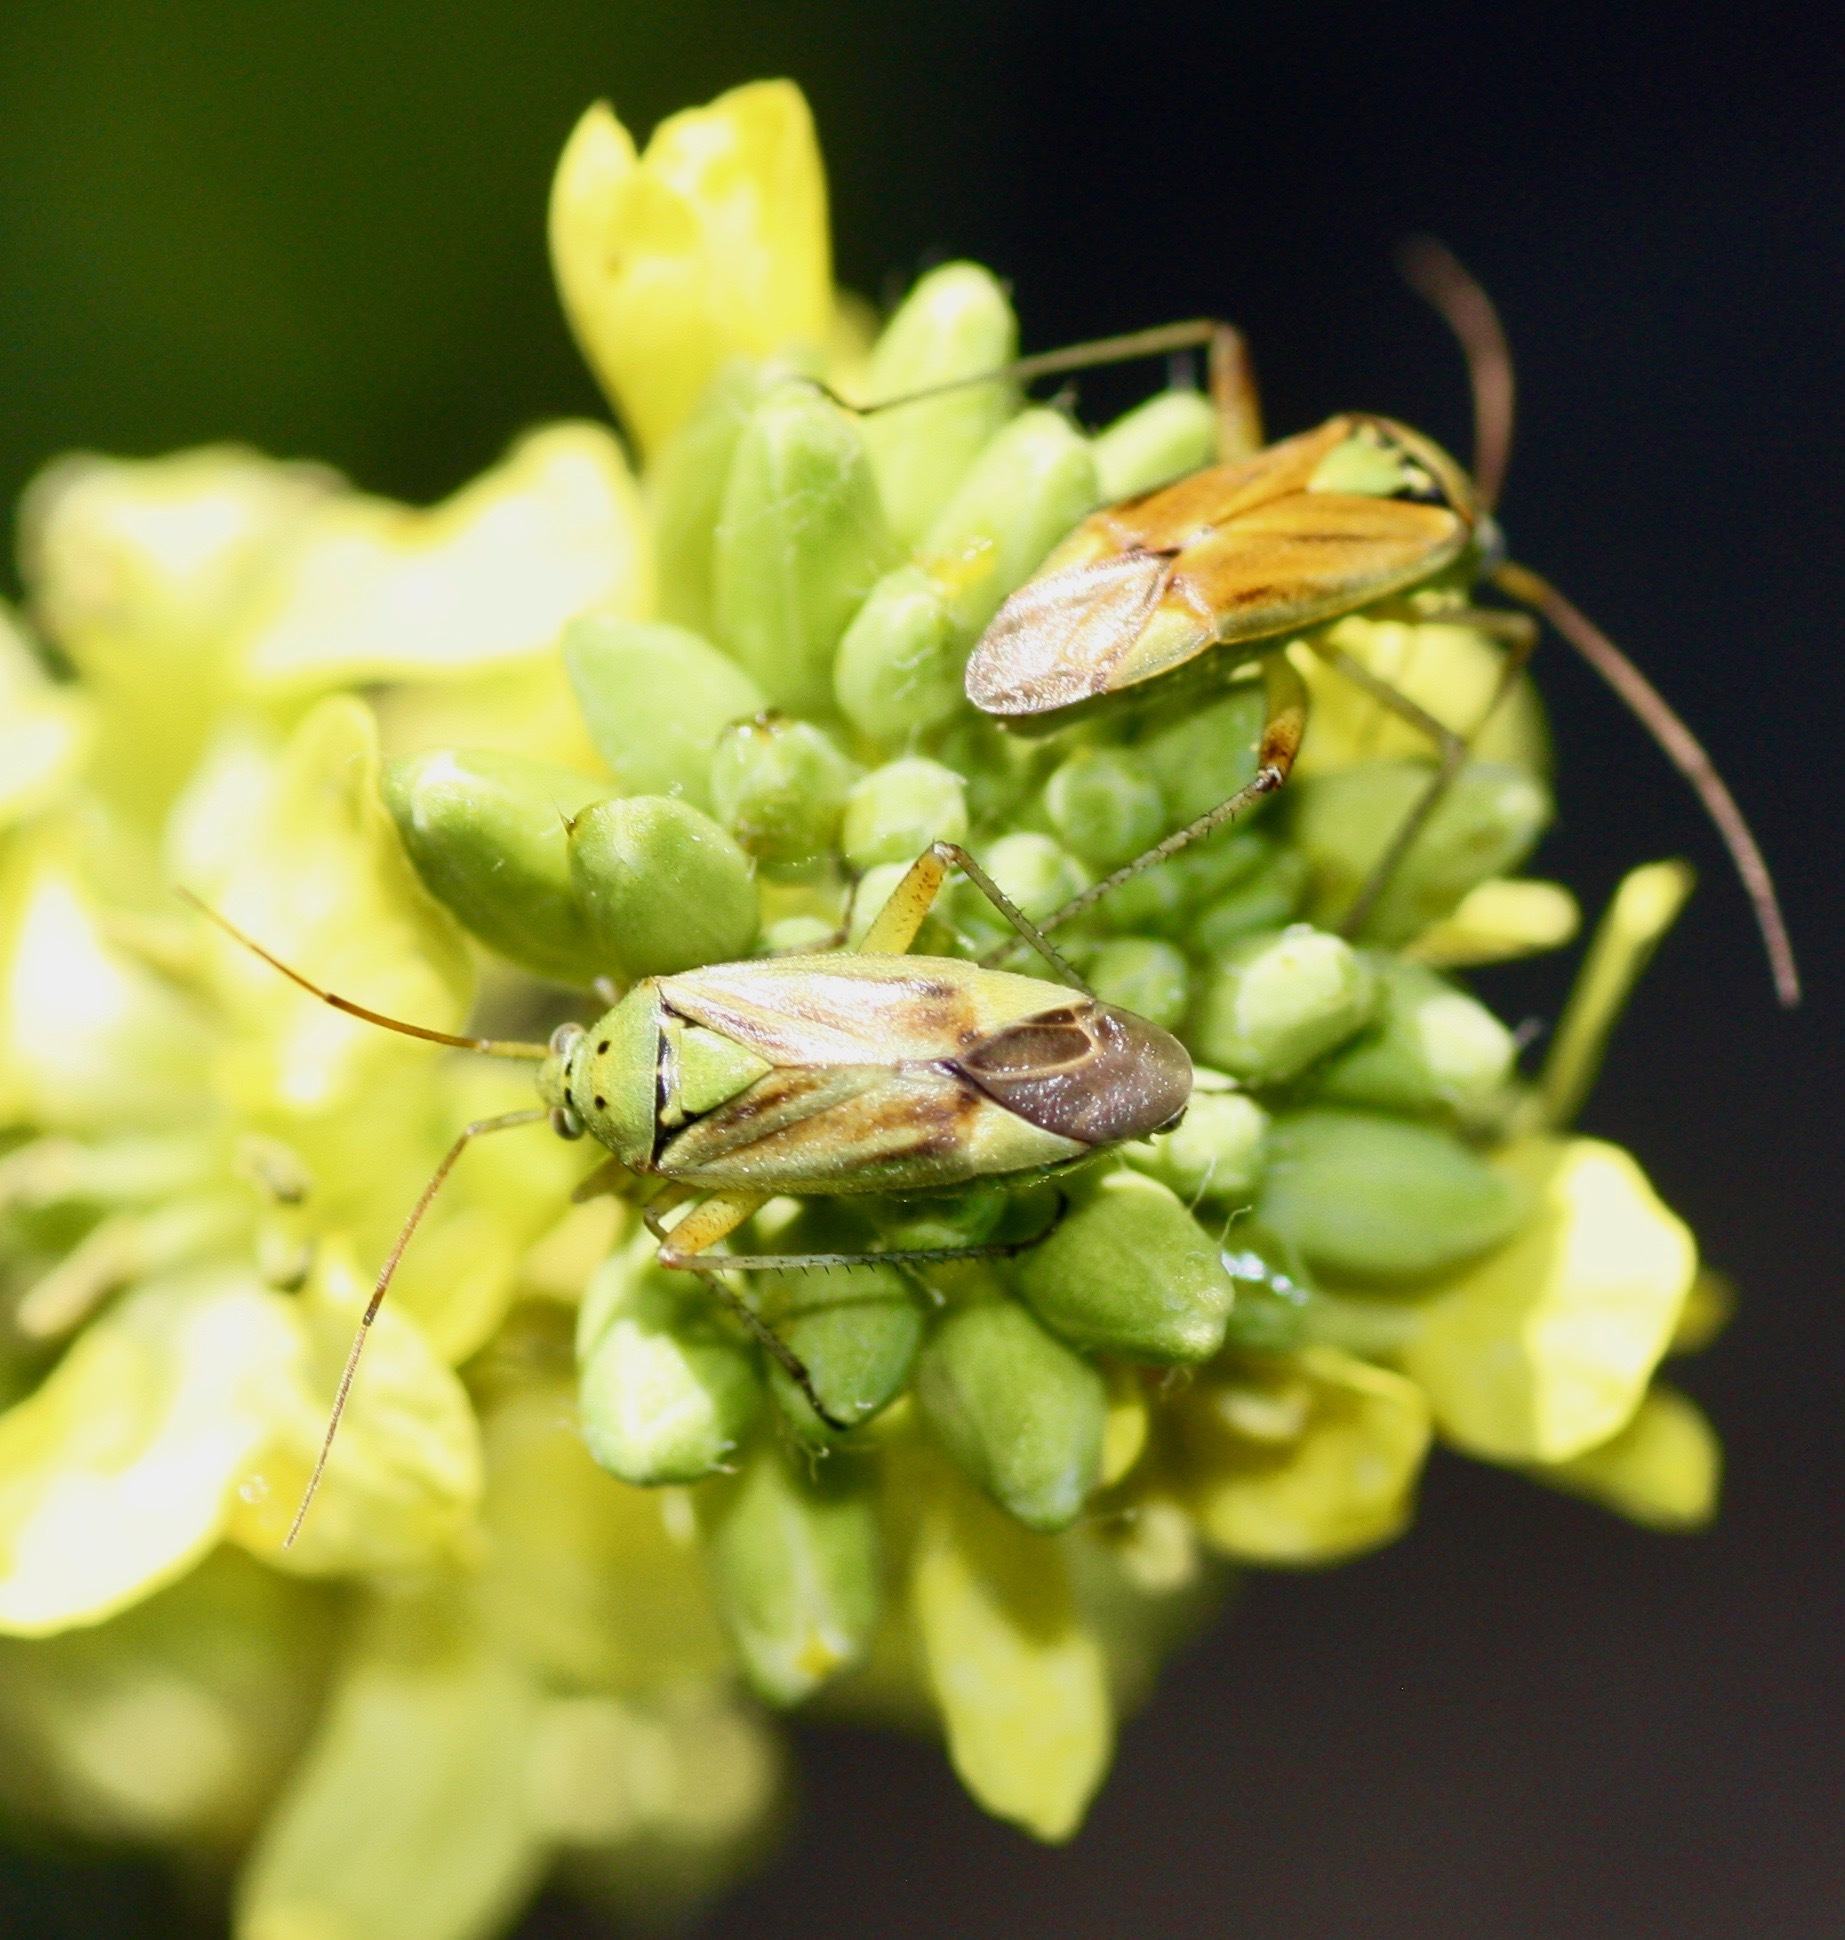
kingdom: Animalia
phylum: Arthropoda
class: Insecta
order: Hemiptera
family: Miridae
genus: Closterotomus
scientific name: Closterotomus norvegicus
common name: Plant bug
